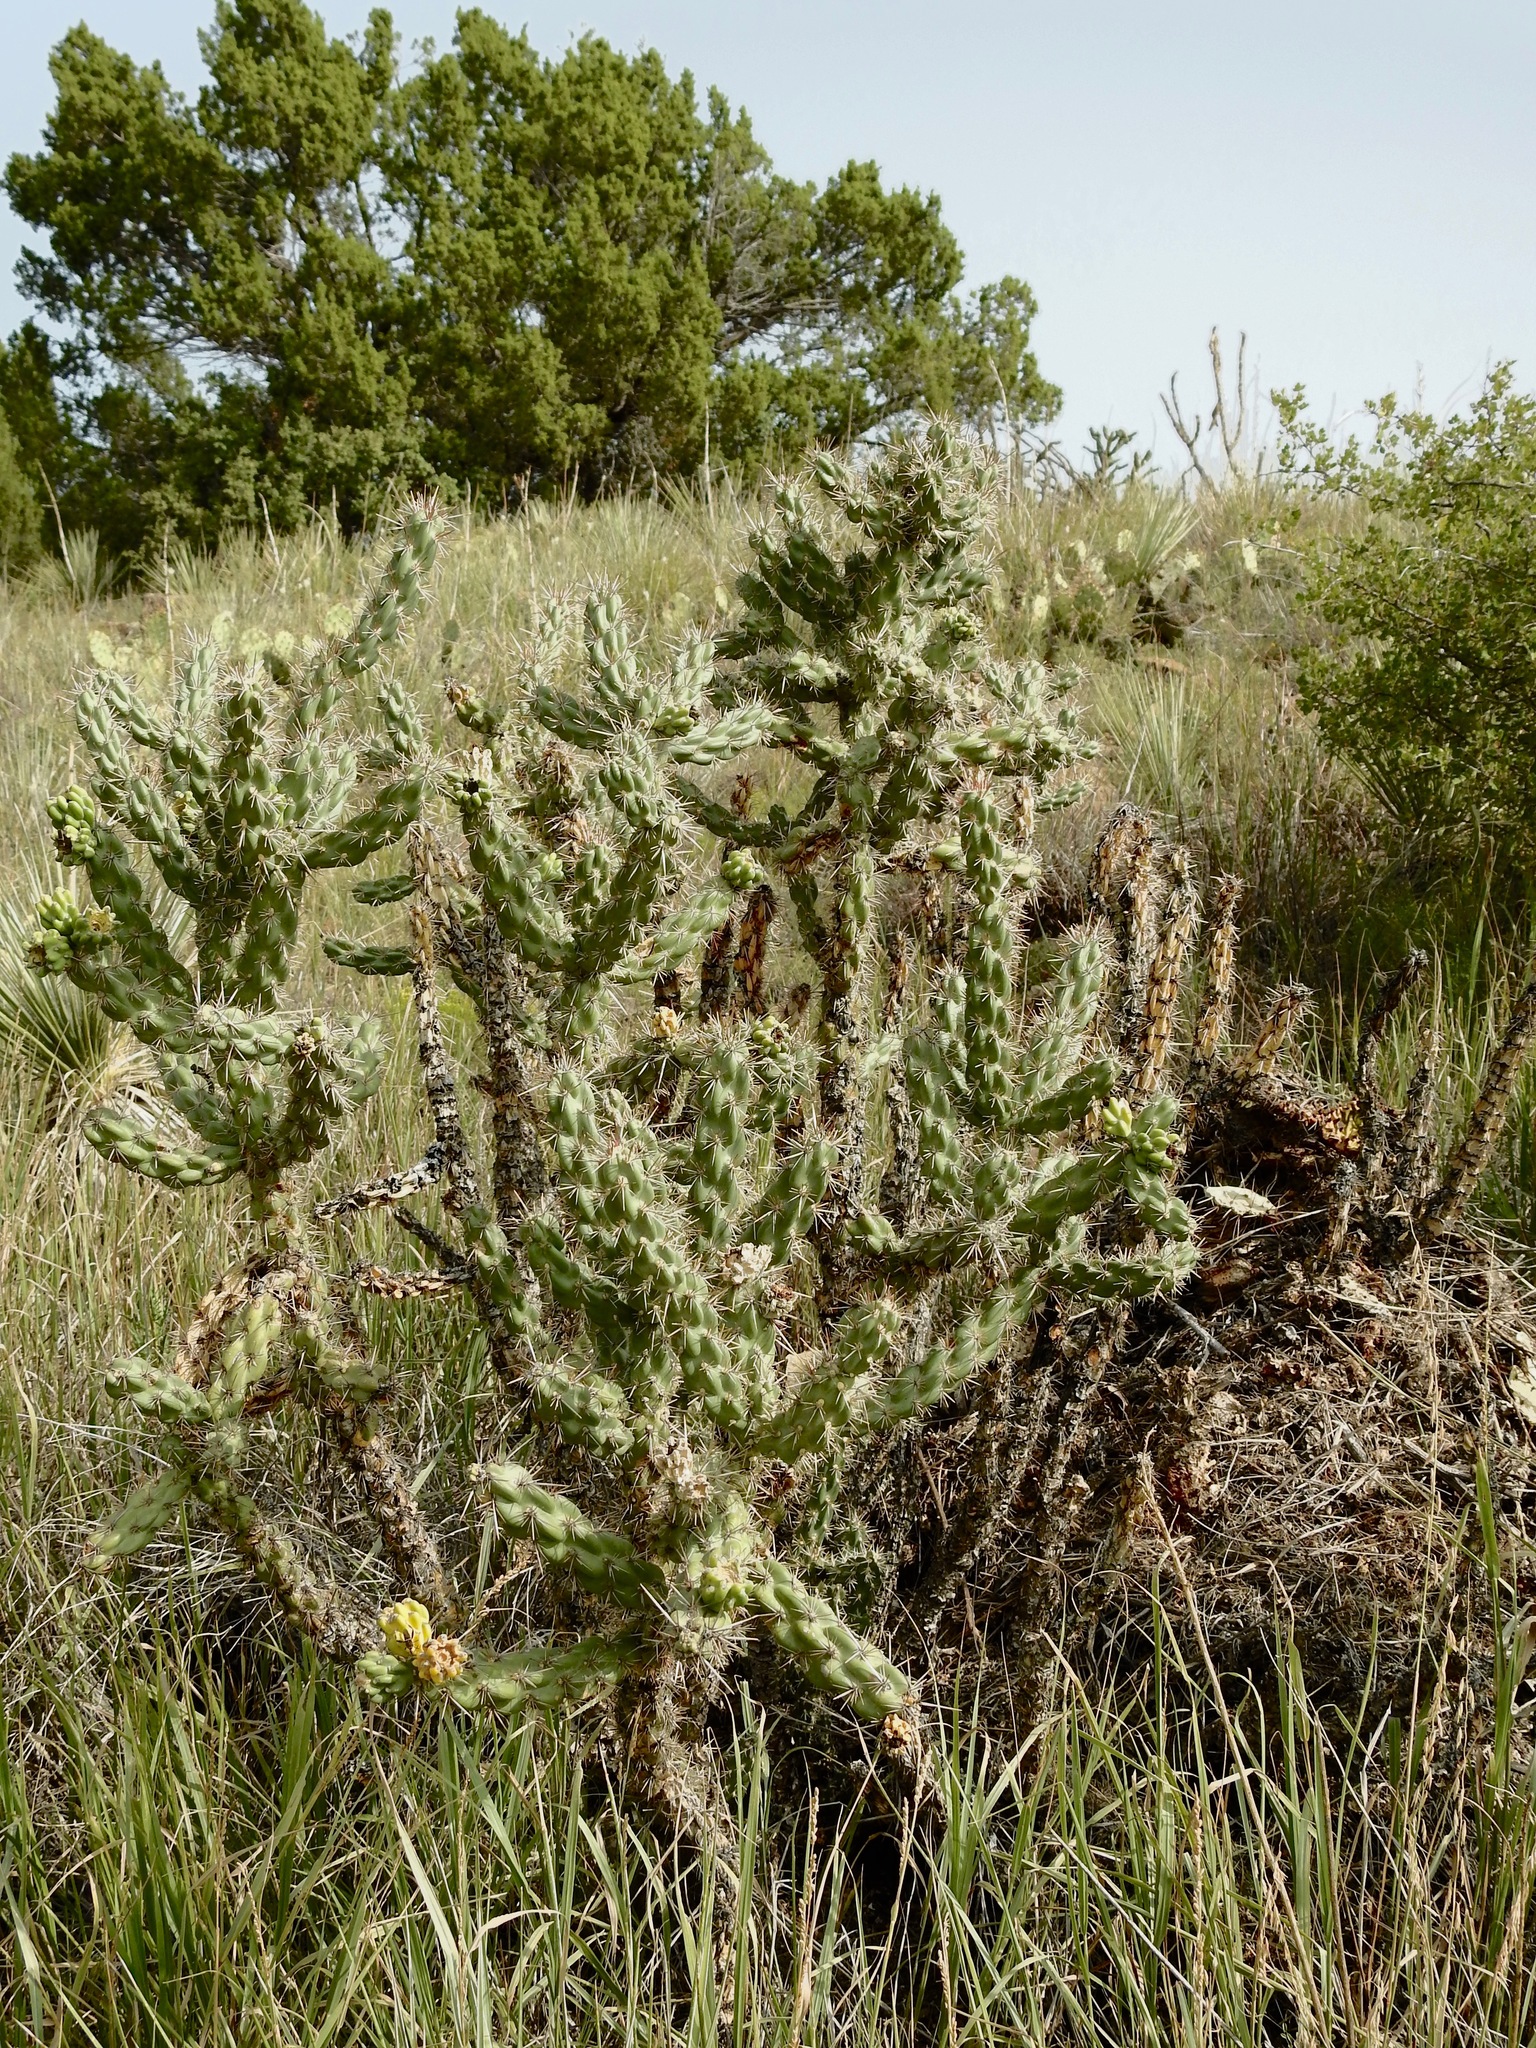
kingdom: Plantae
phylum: Tracheophyta
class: Magnoliopsida
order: Caryophyllales
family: Cactaceae
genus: Cylindropuntia
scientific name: Cylindropuntia imbricata
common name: Candelabrum cactus
